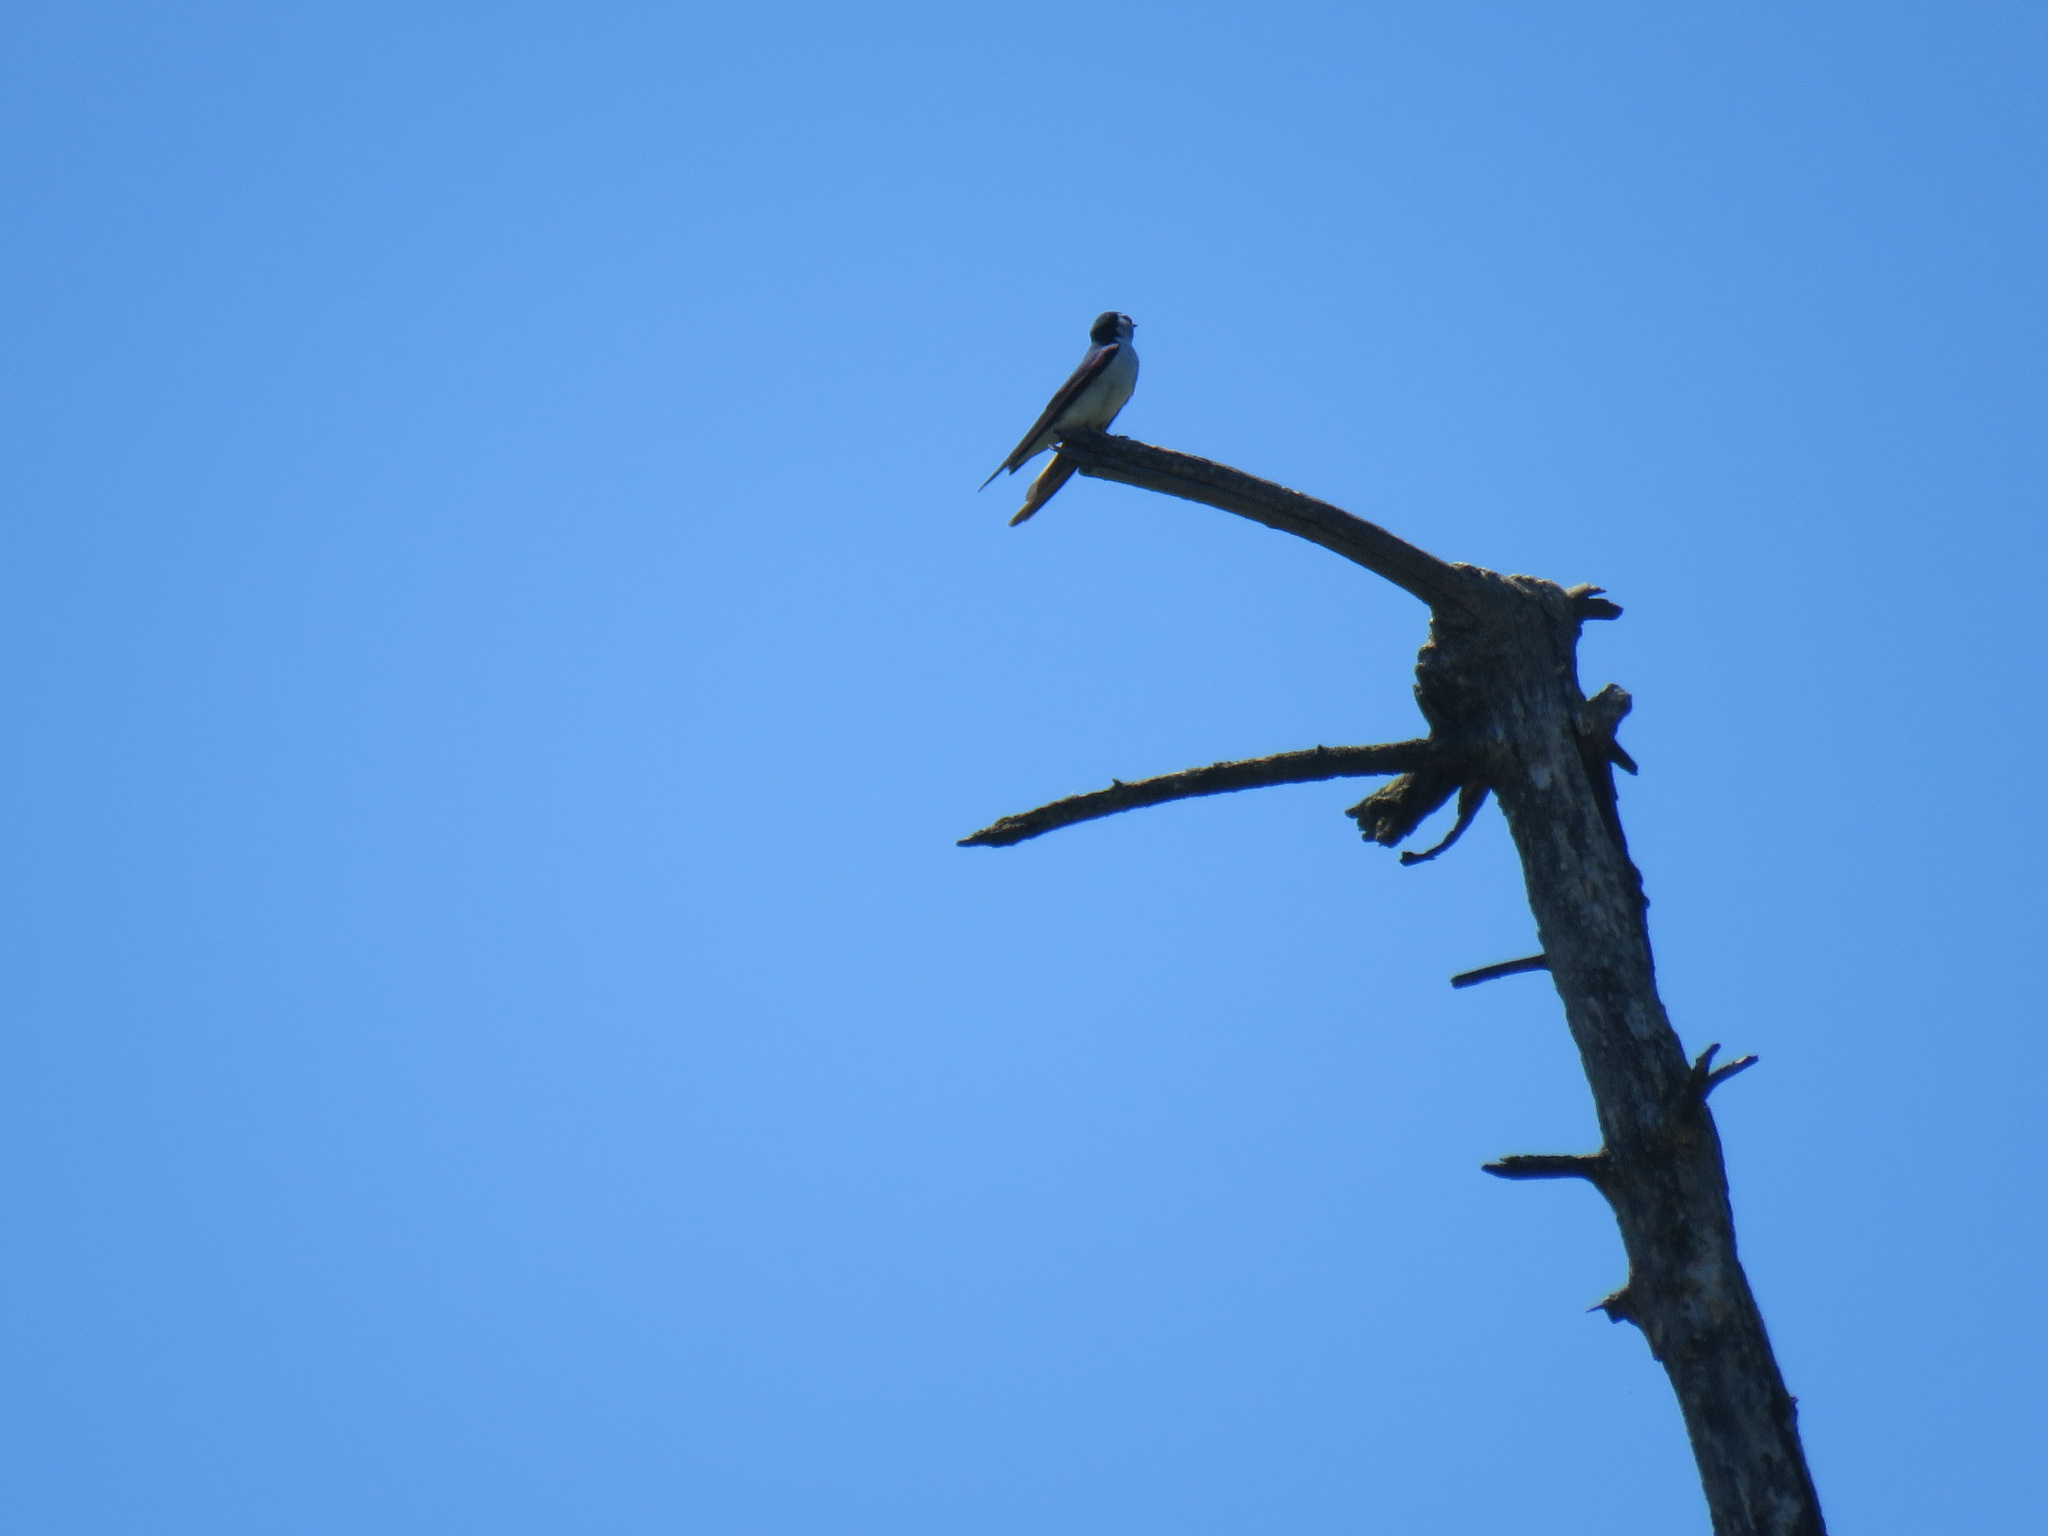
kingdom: Animalia
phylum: Chordata
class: Aves
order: Passeriformes
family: Hirundinidae
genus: Tachycineta
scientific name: Tachycineta thalassina
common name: Violet-green swallow
